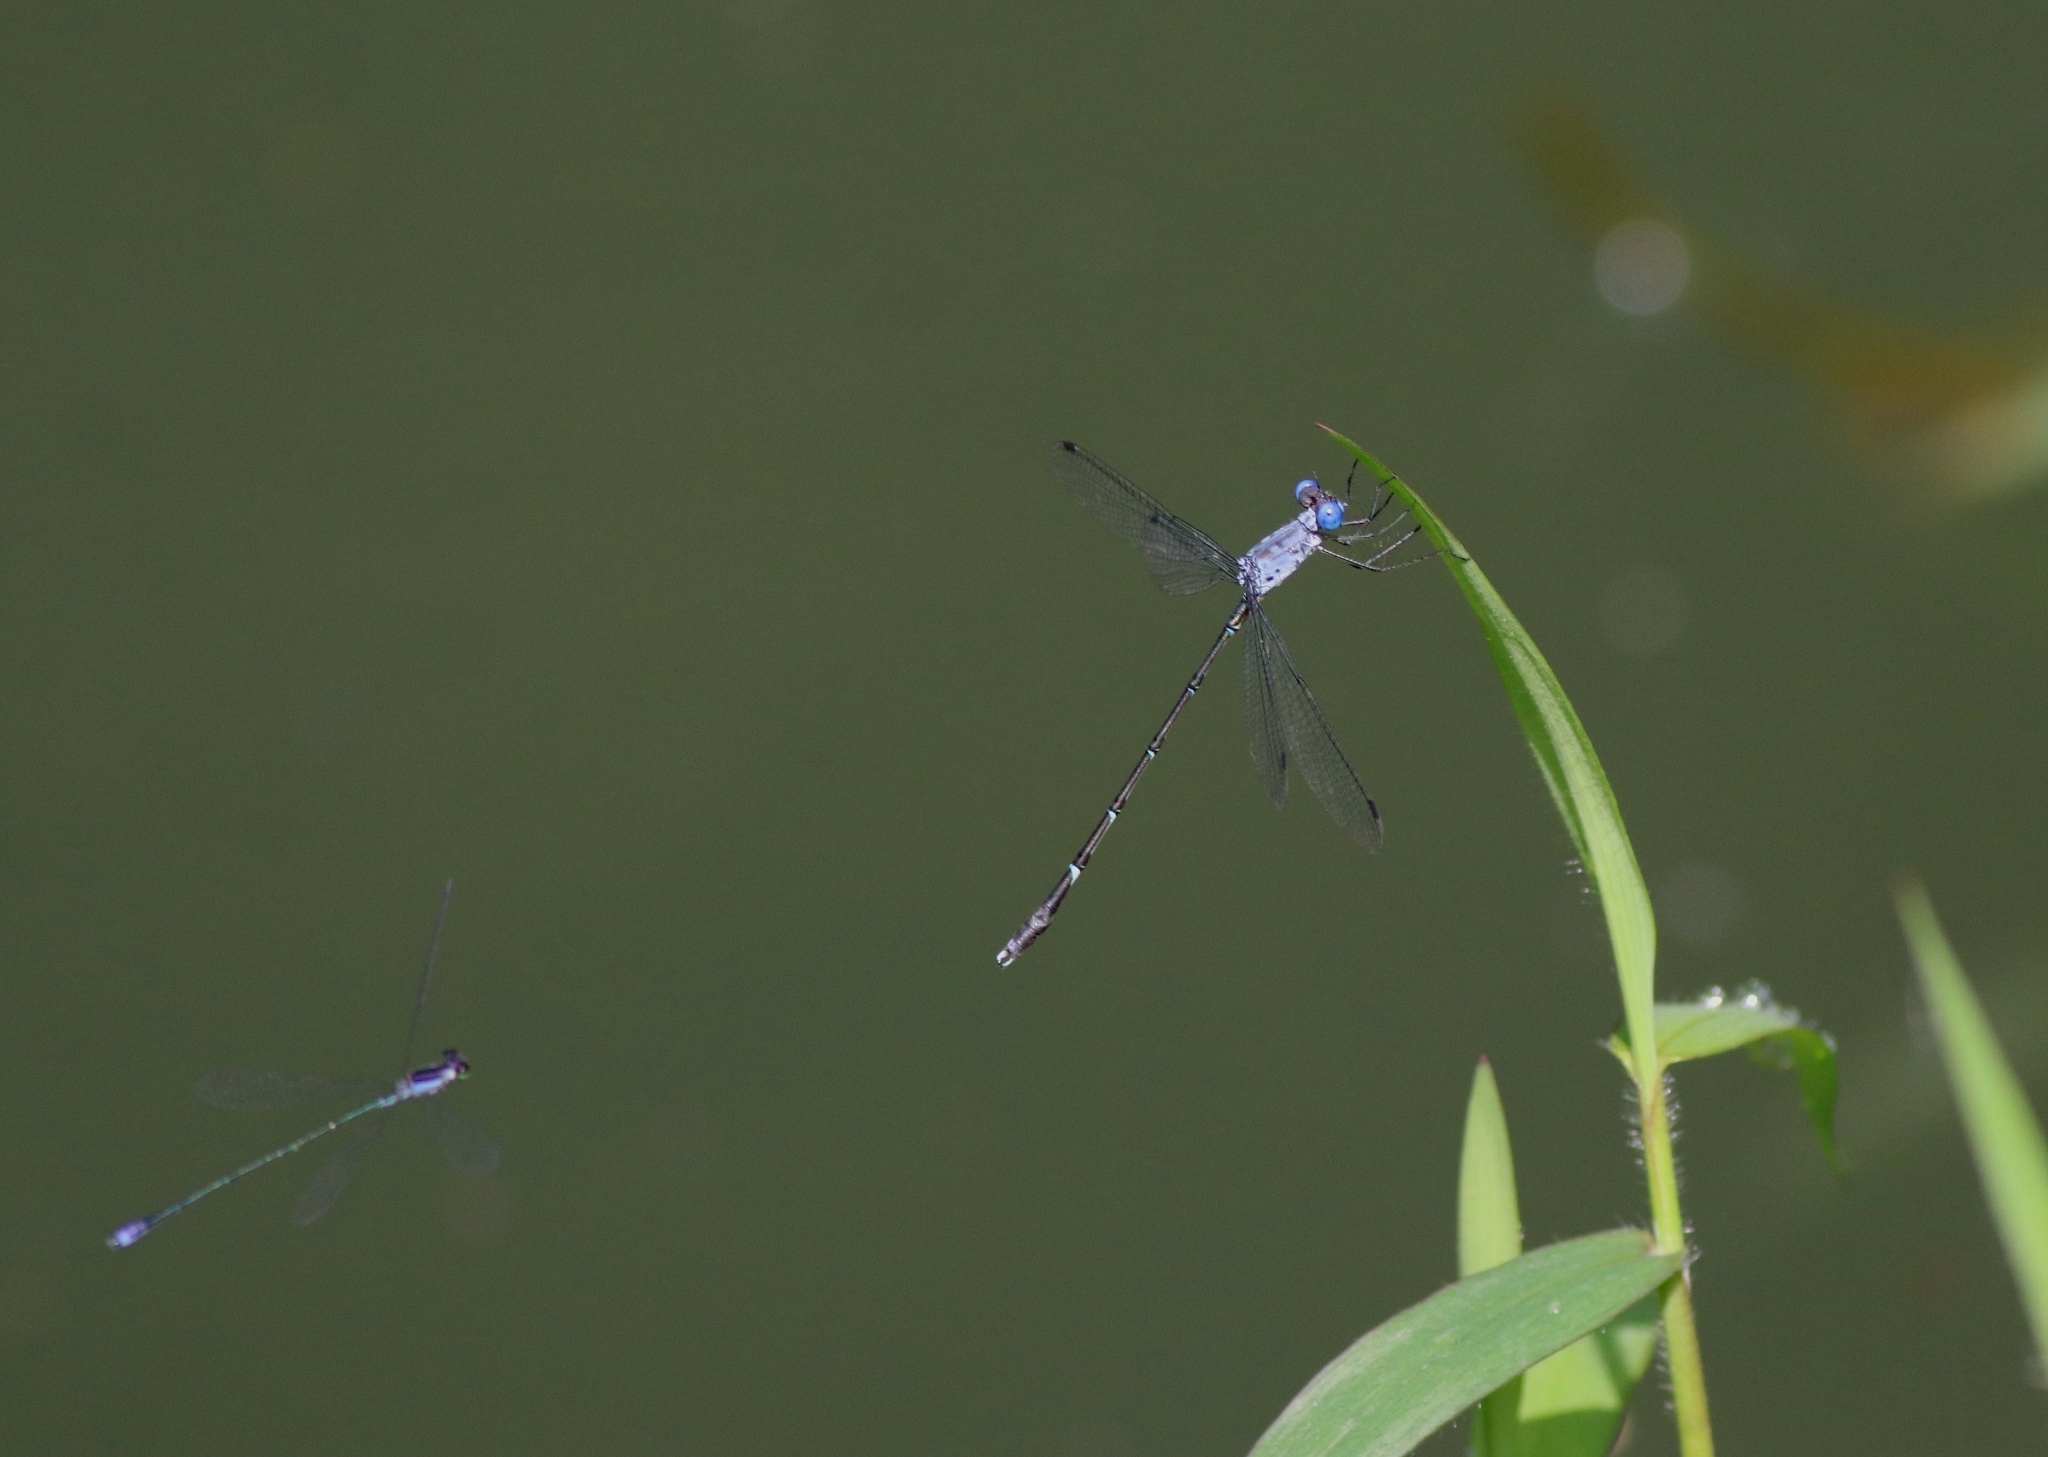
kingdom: Animalia
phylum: Arthropoda
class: Insecta
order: Odonata
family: Coenagrionidae
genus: Aciagrion
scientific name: Aciagrion approximans
